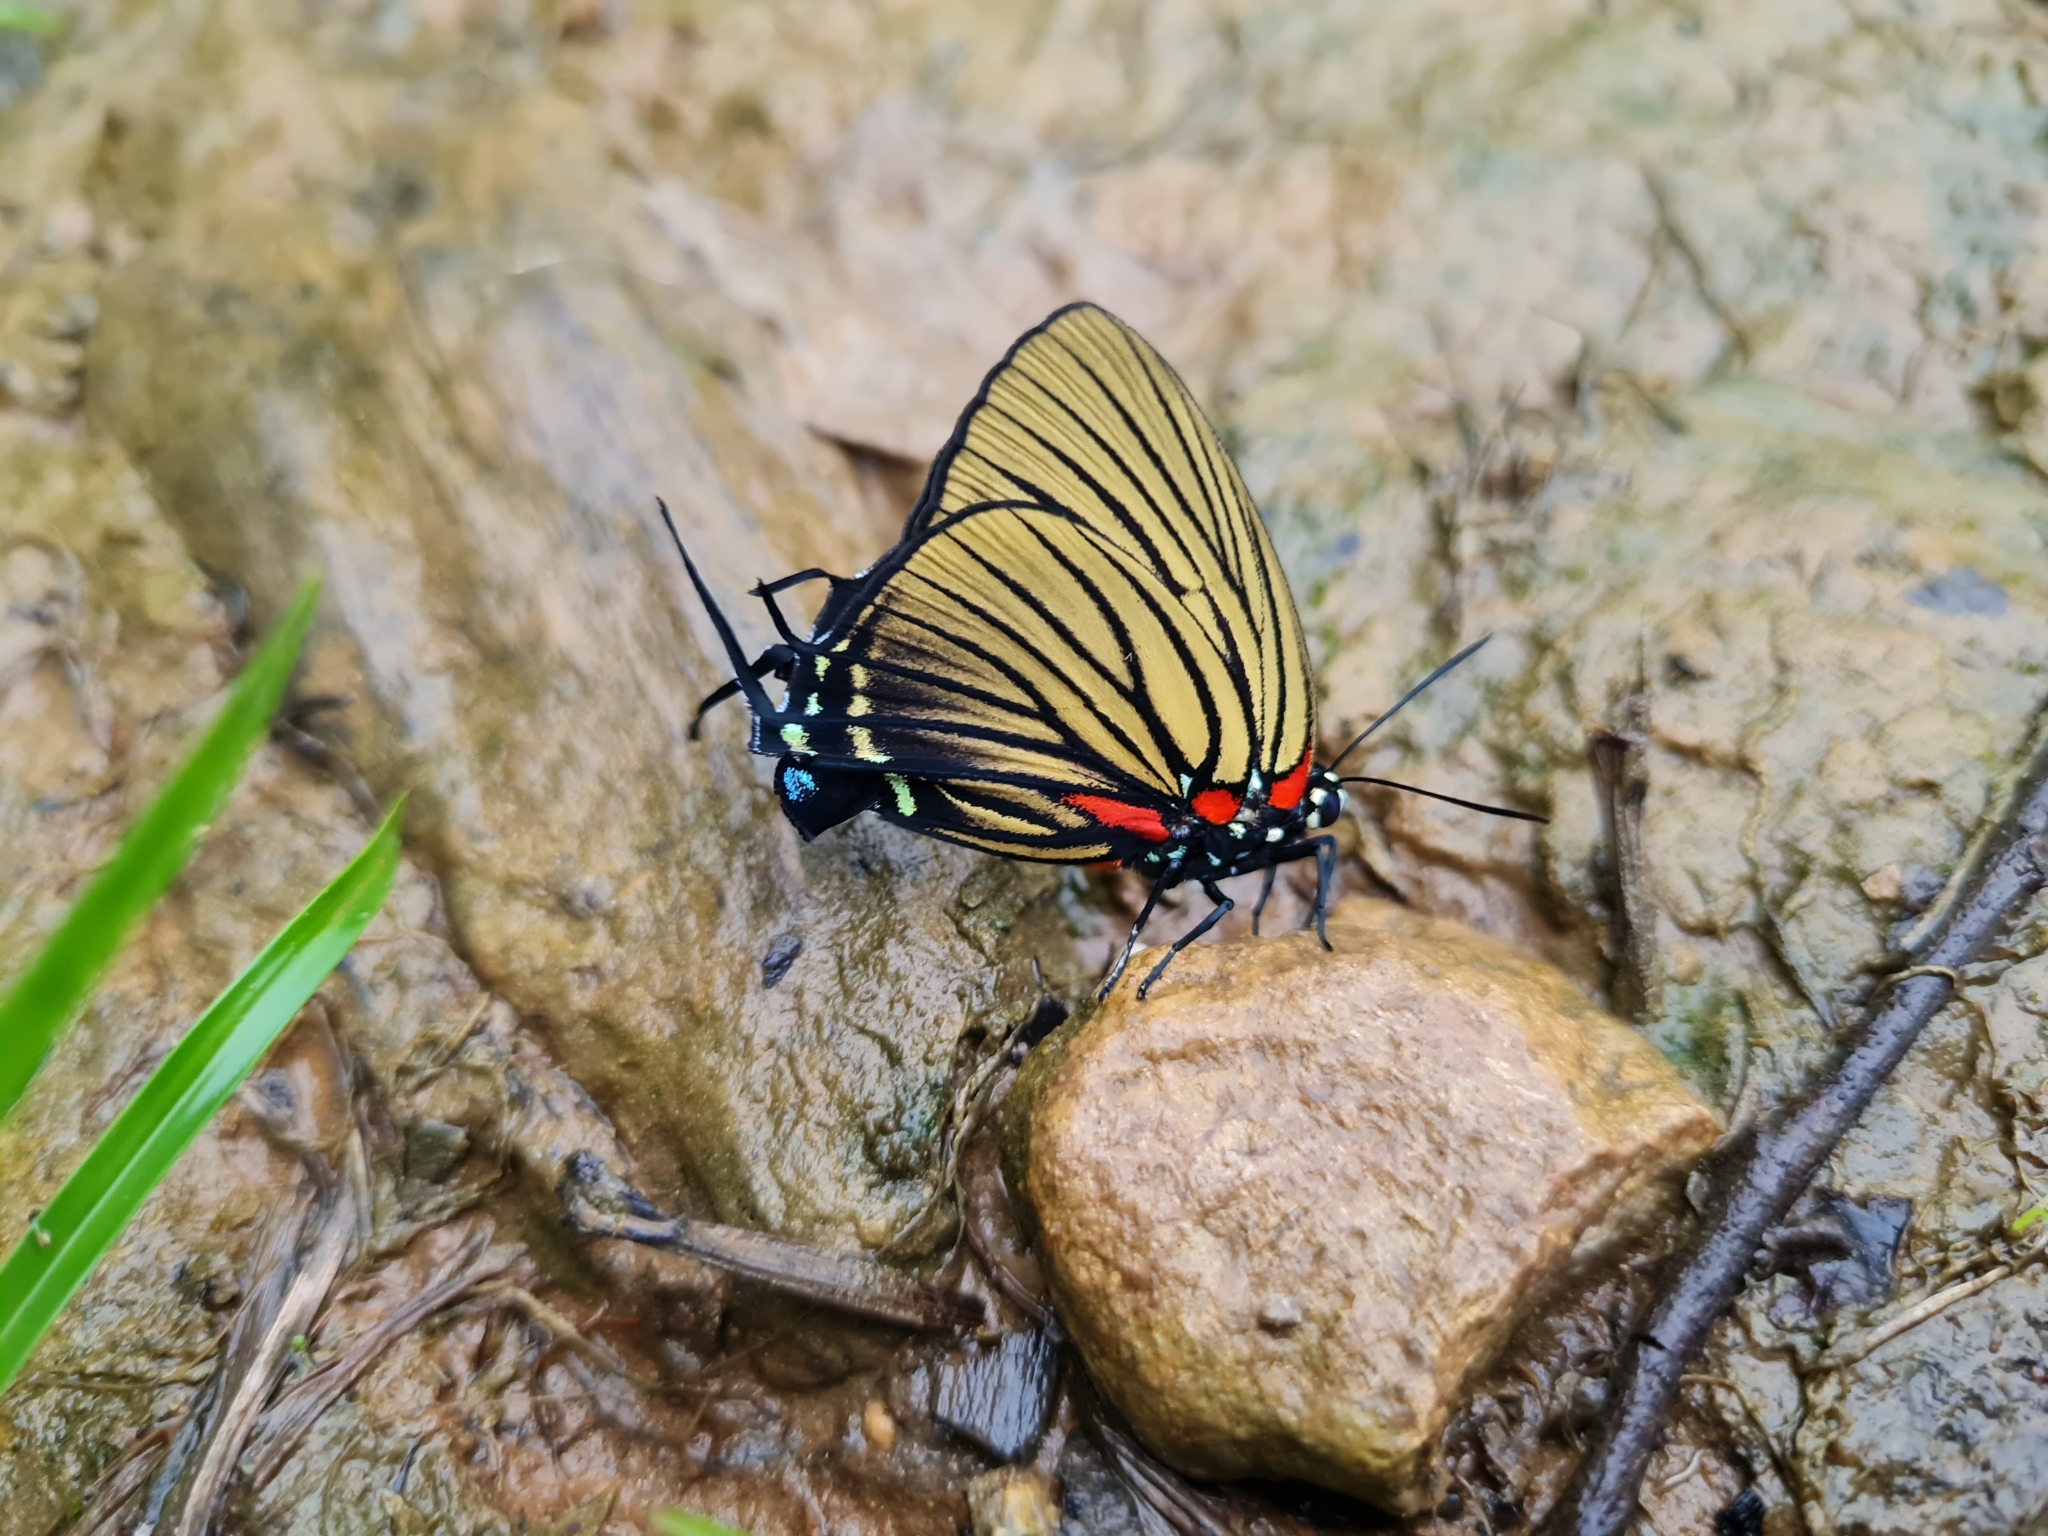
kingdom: Animalia
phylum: Arthropoda
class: Insecta
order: Lepidoptera
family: Lycaenidae
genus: Thecla
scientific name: Thecla polybe
